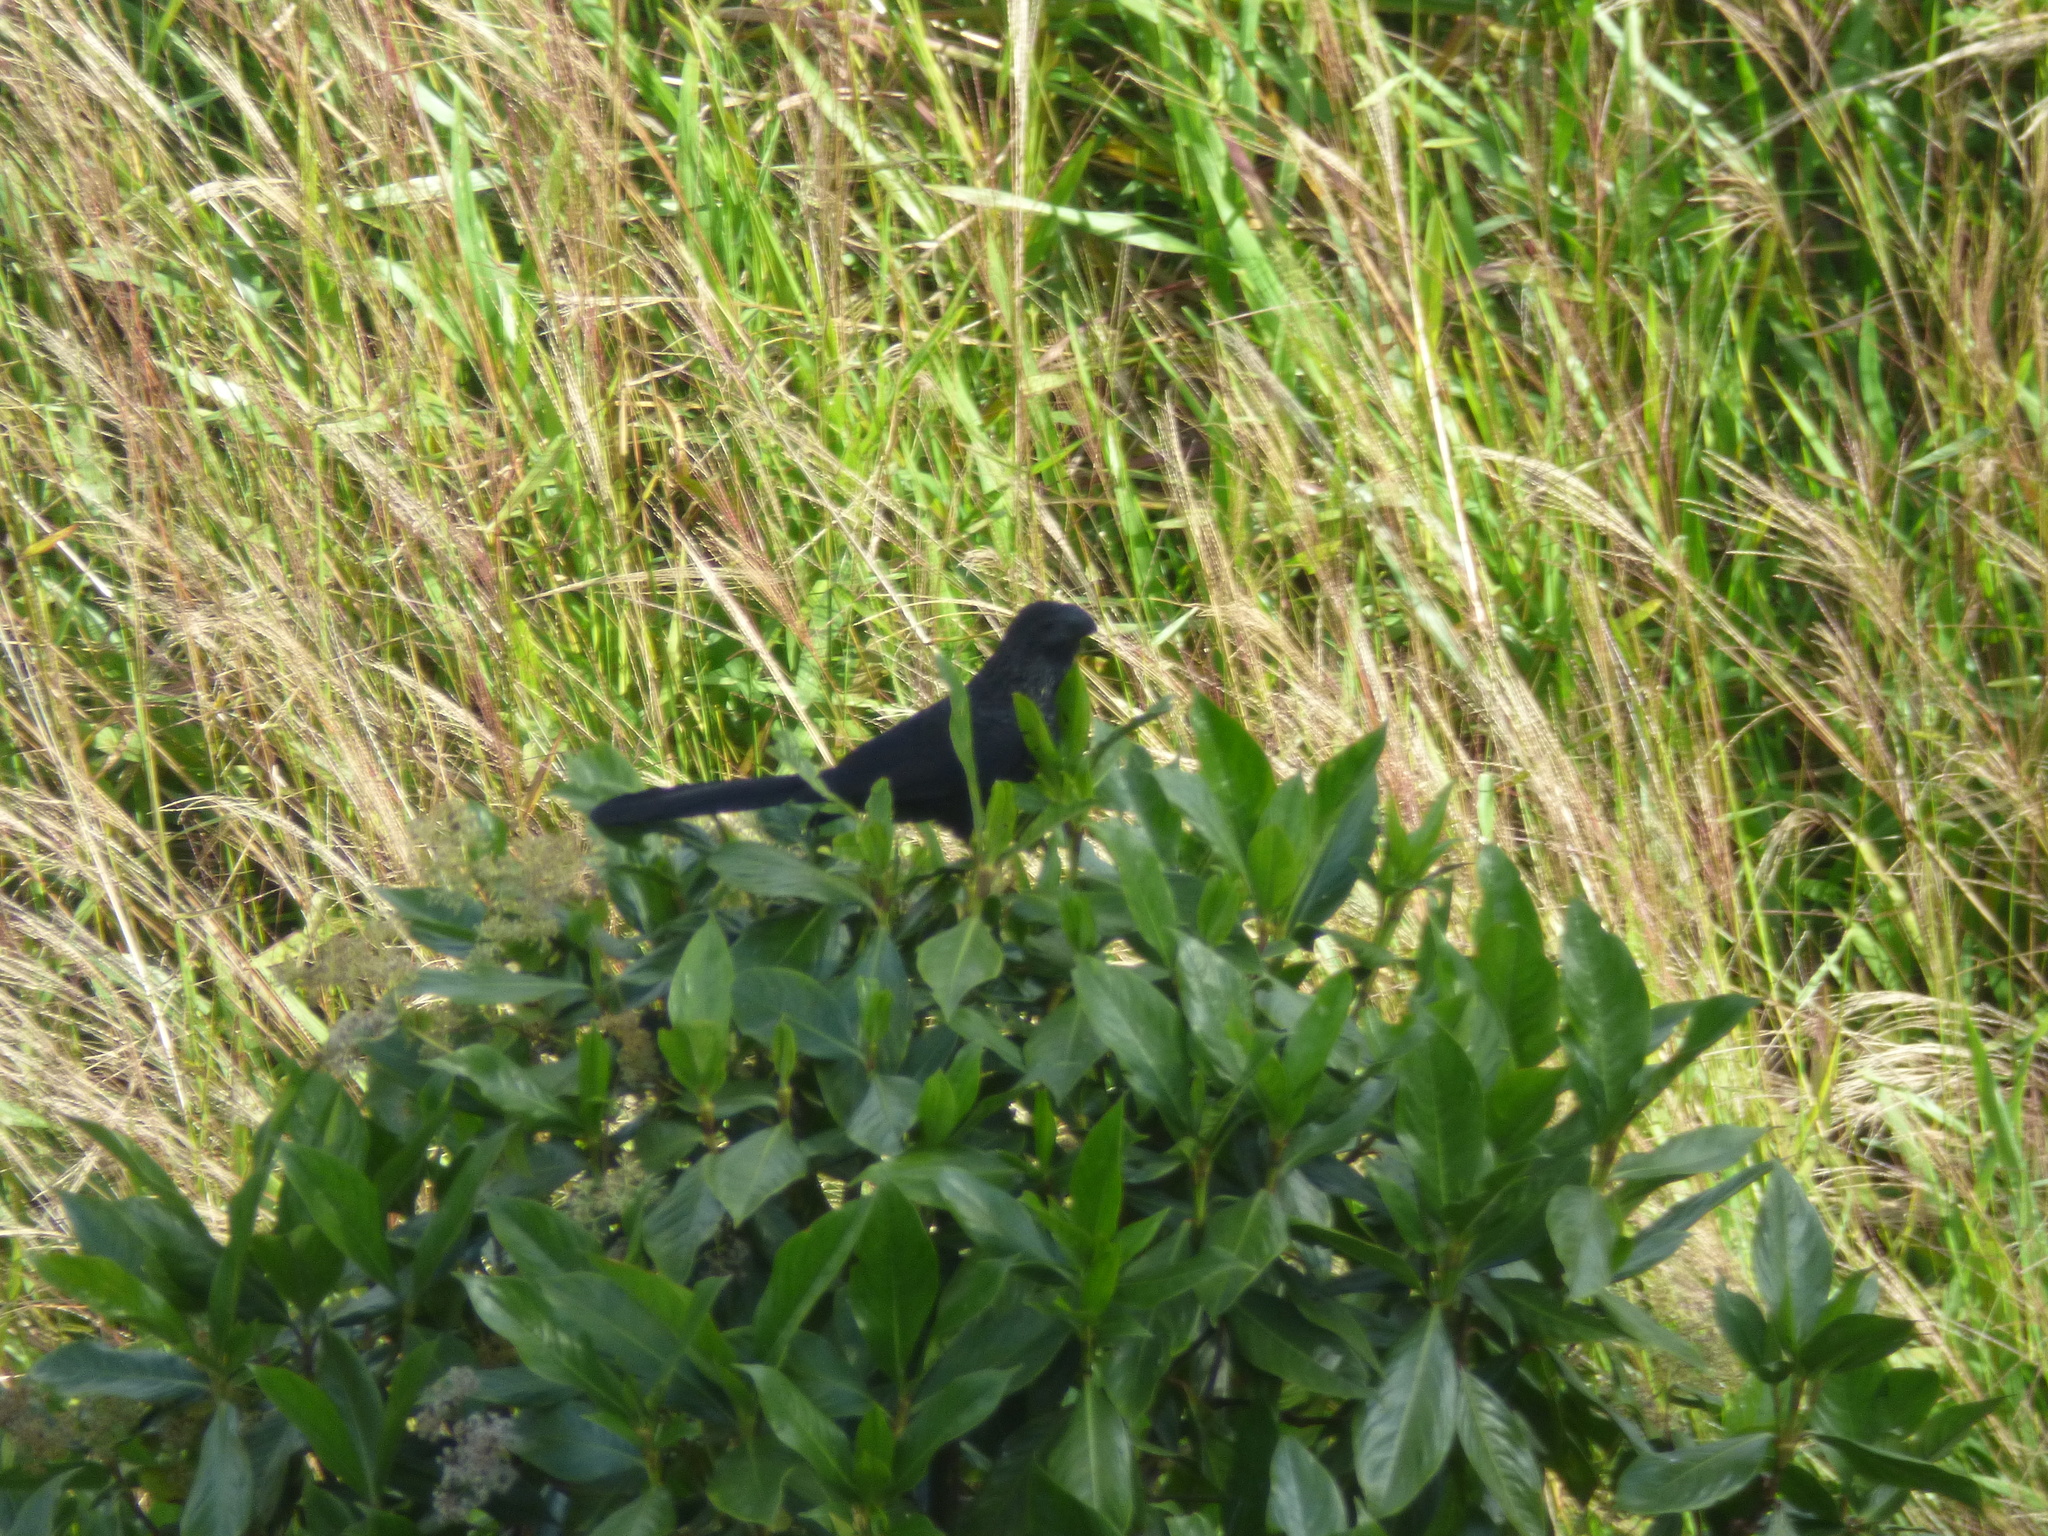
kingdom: Animalia
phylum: Chordata
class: Aves
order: Cuculiformes
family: Cuculidae
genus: Crotophaga
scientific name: Crotophaga ani
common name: Smooth-billed ani
